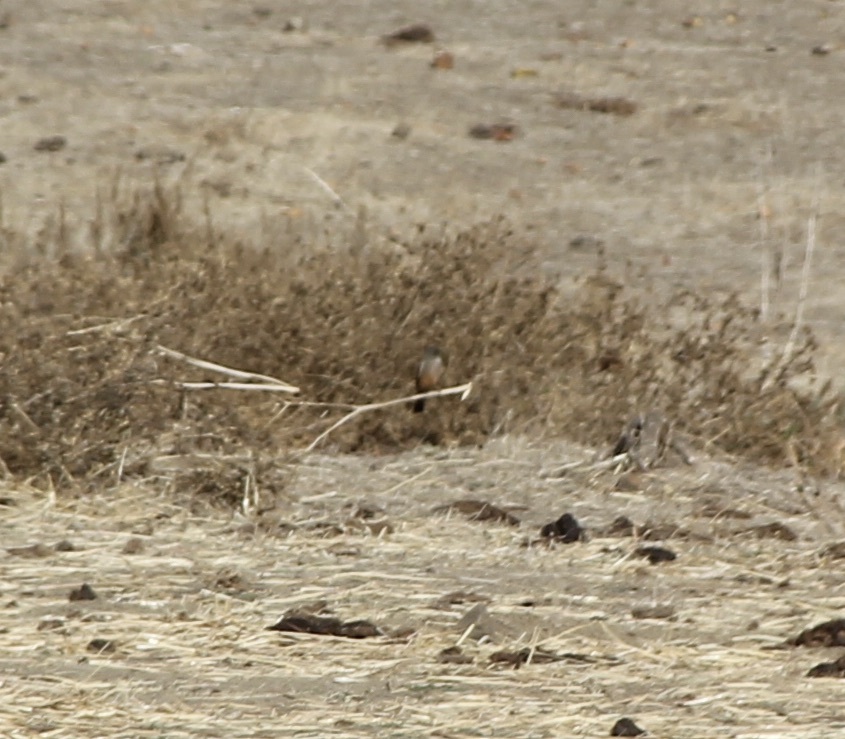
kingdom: Animalia
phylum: Chordata
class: Aves
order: Passeriformes
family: Tyrannidae
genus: Sayornis
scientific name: Sayornis saya
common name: Say's phoebe
